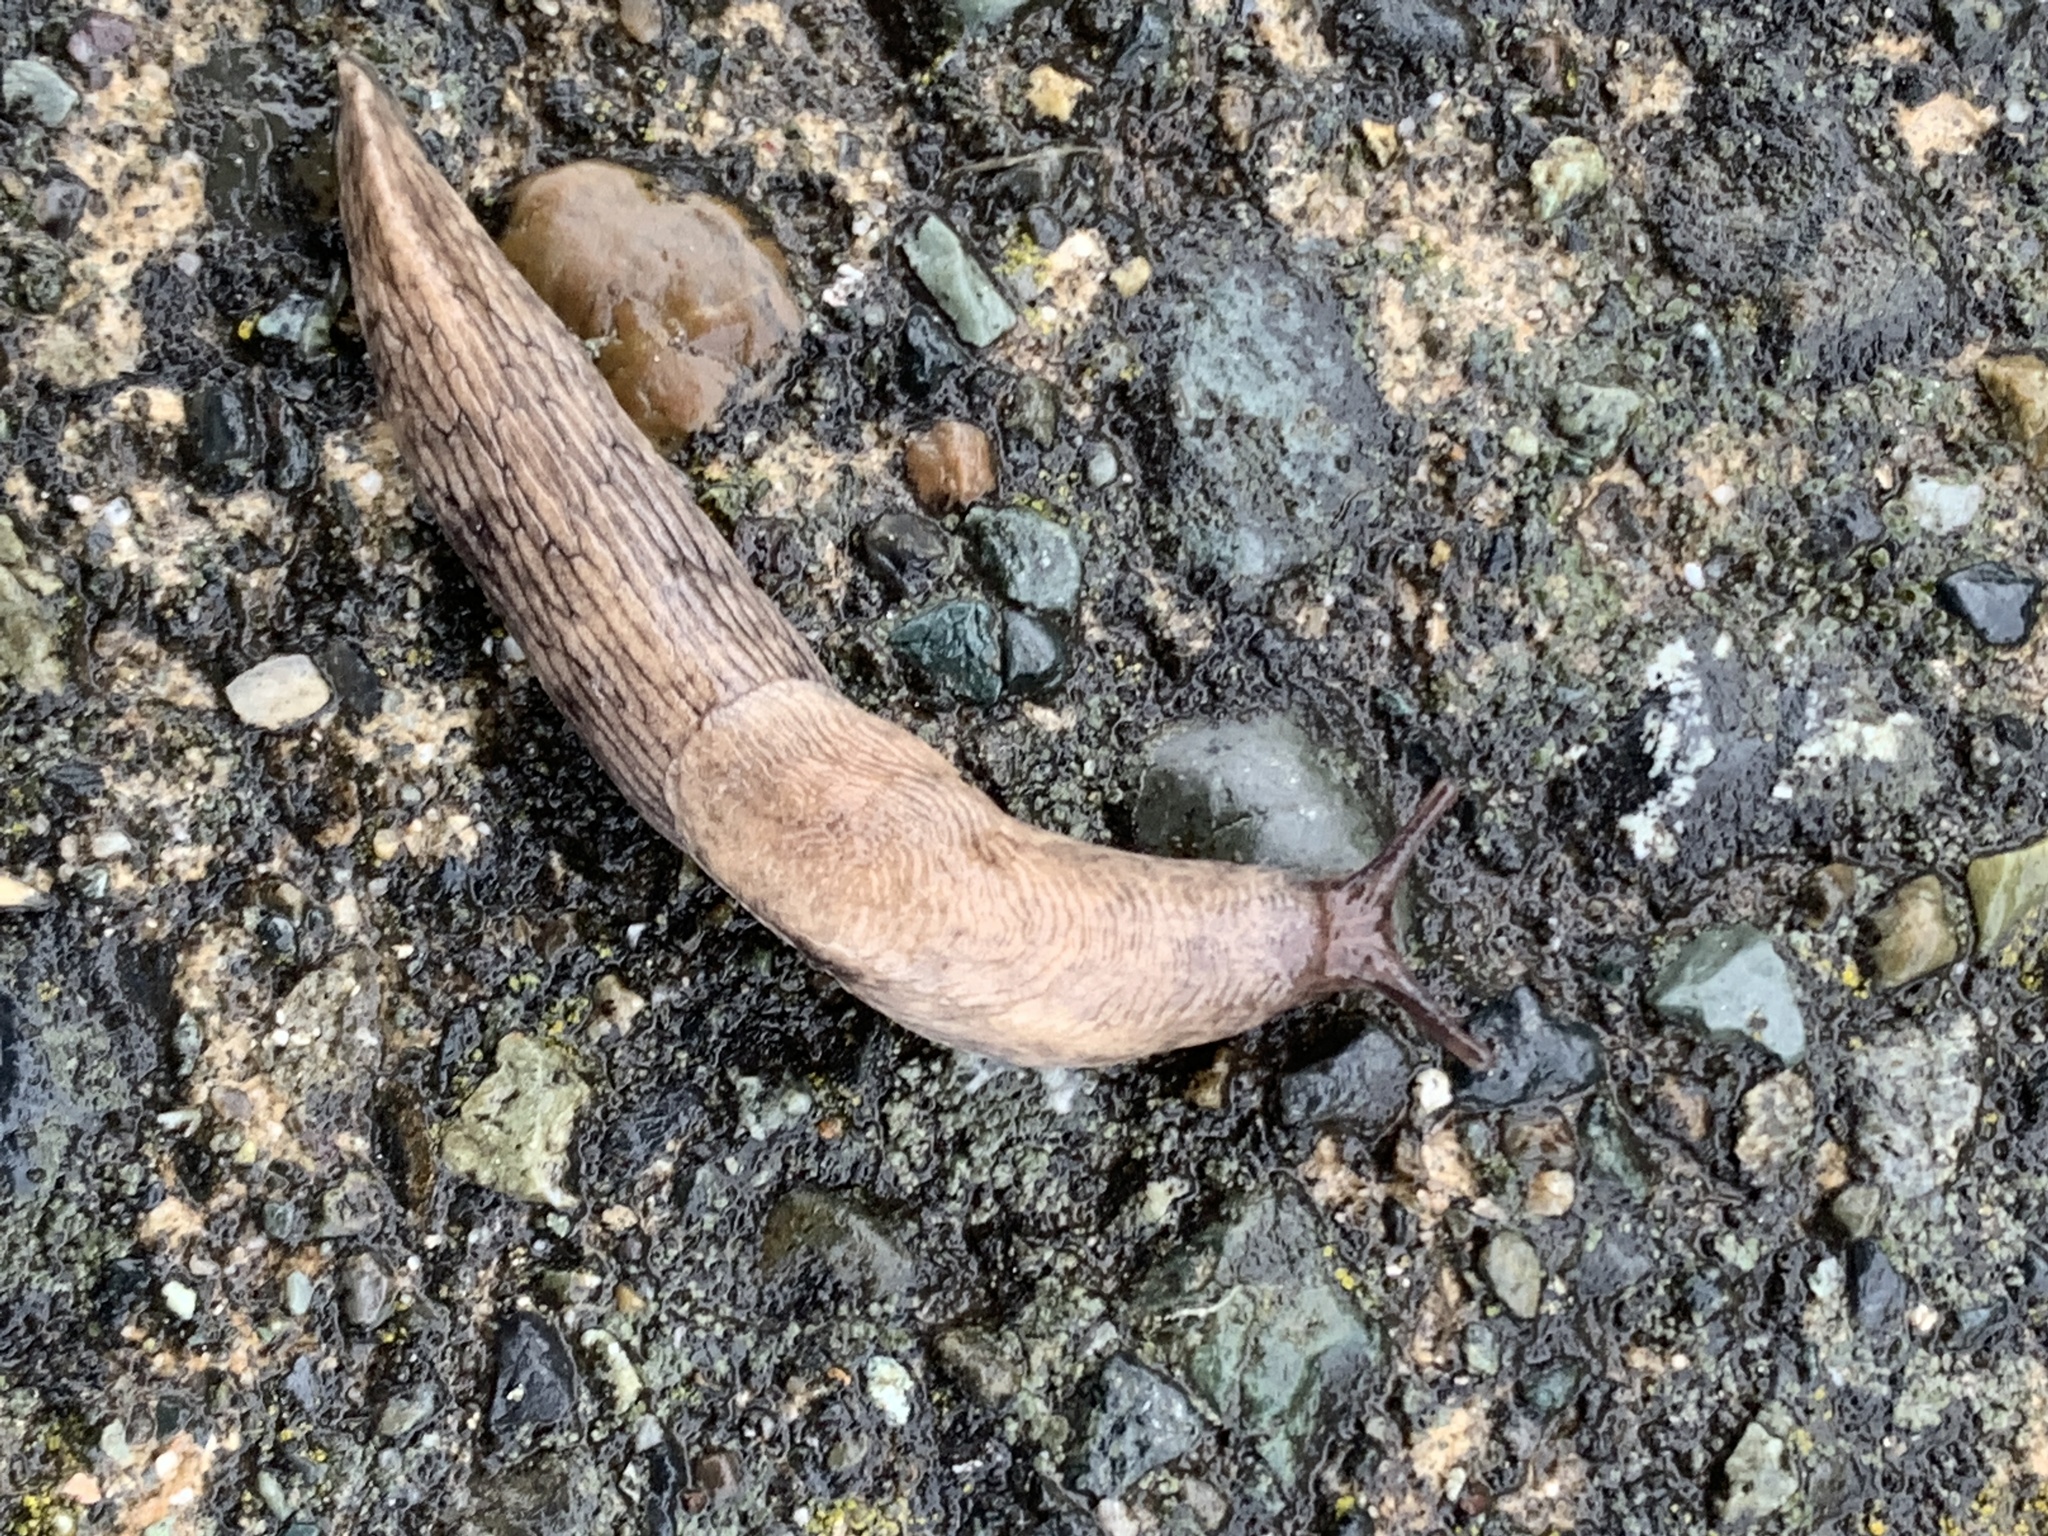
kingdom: Animalia
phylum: Mollusca
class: Gastropoda
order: Stylommatophora
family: Agriolimacidae
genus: Deroceras
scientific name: Deroceras reticulatum
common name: Gray field slug
